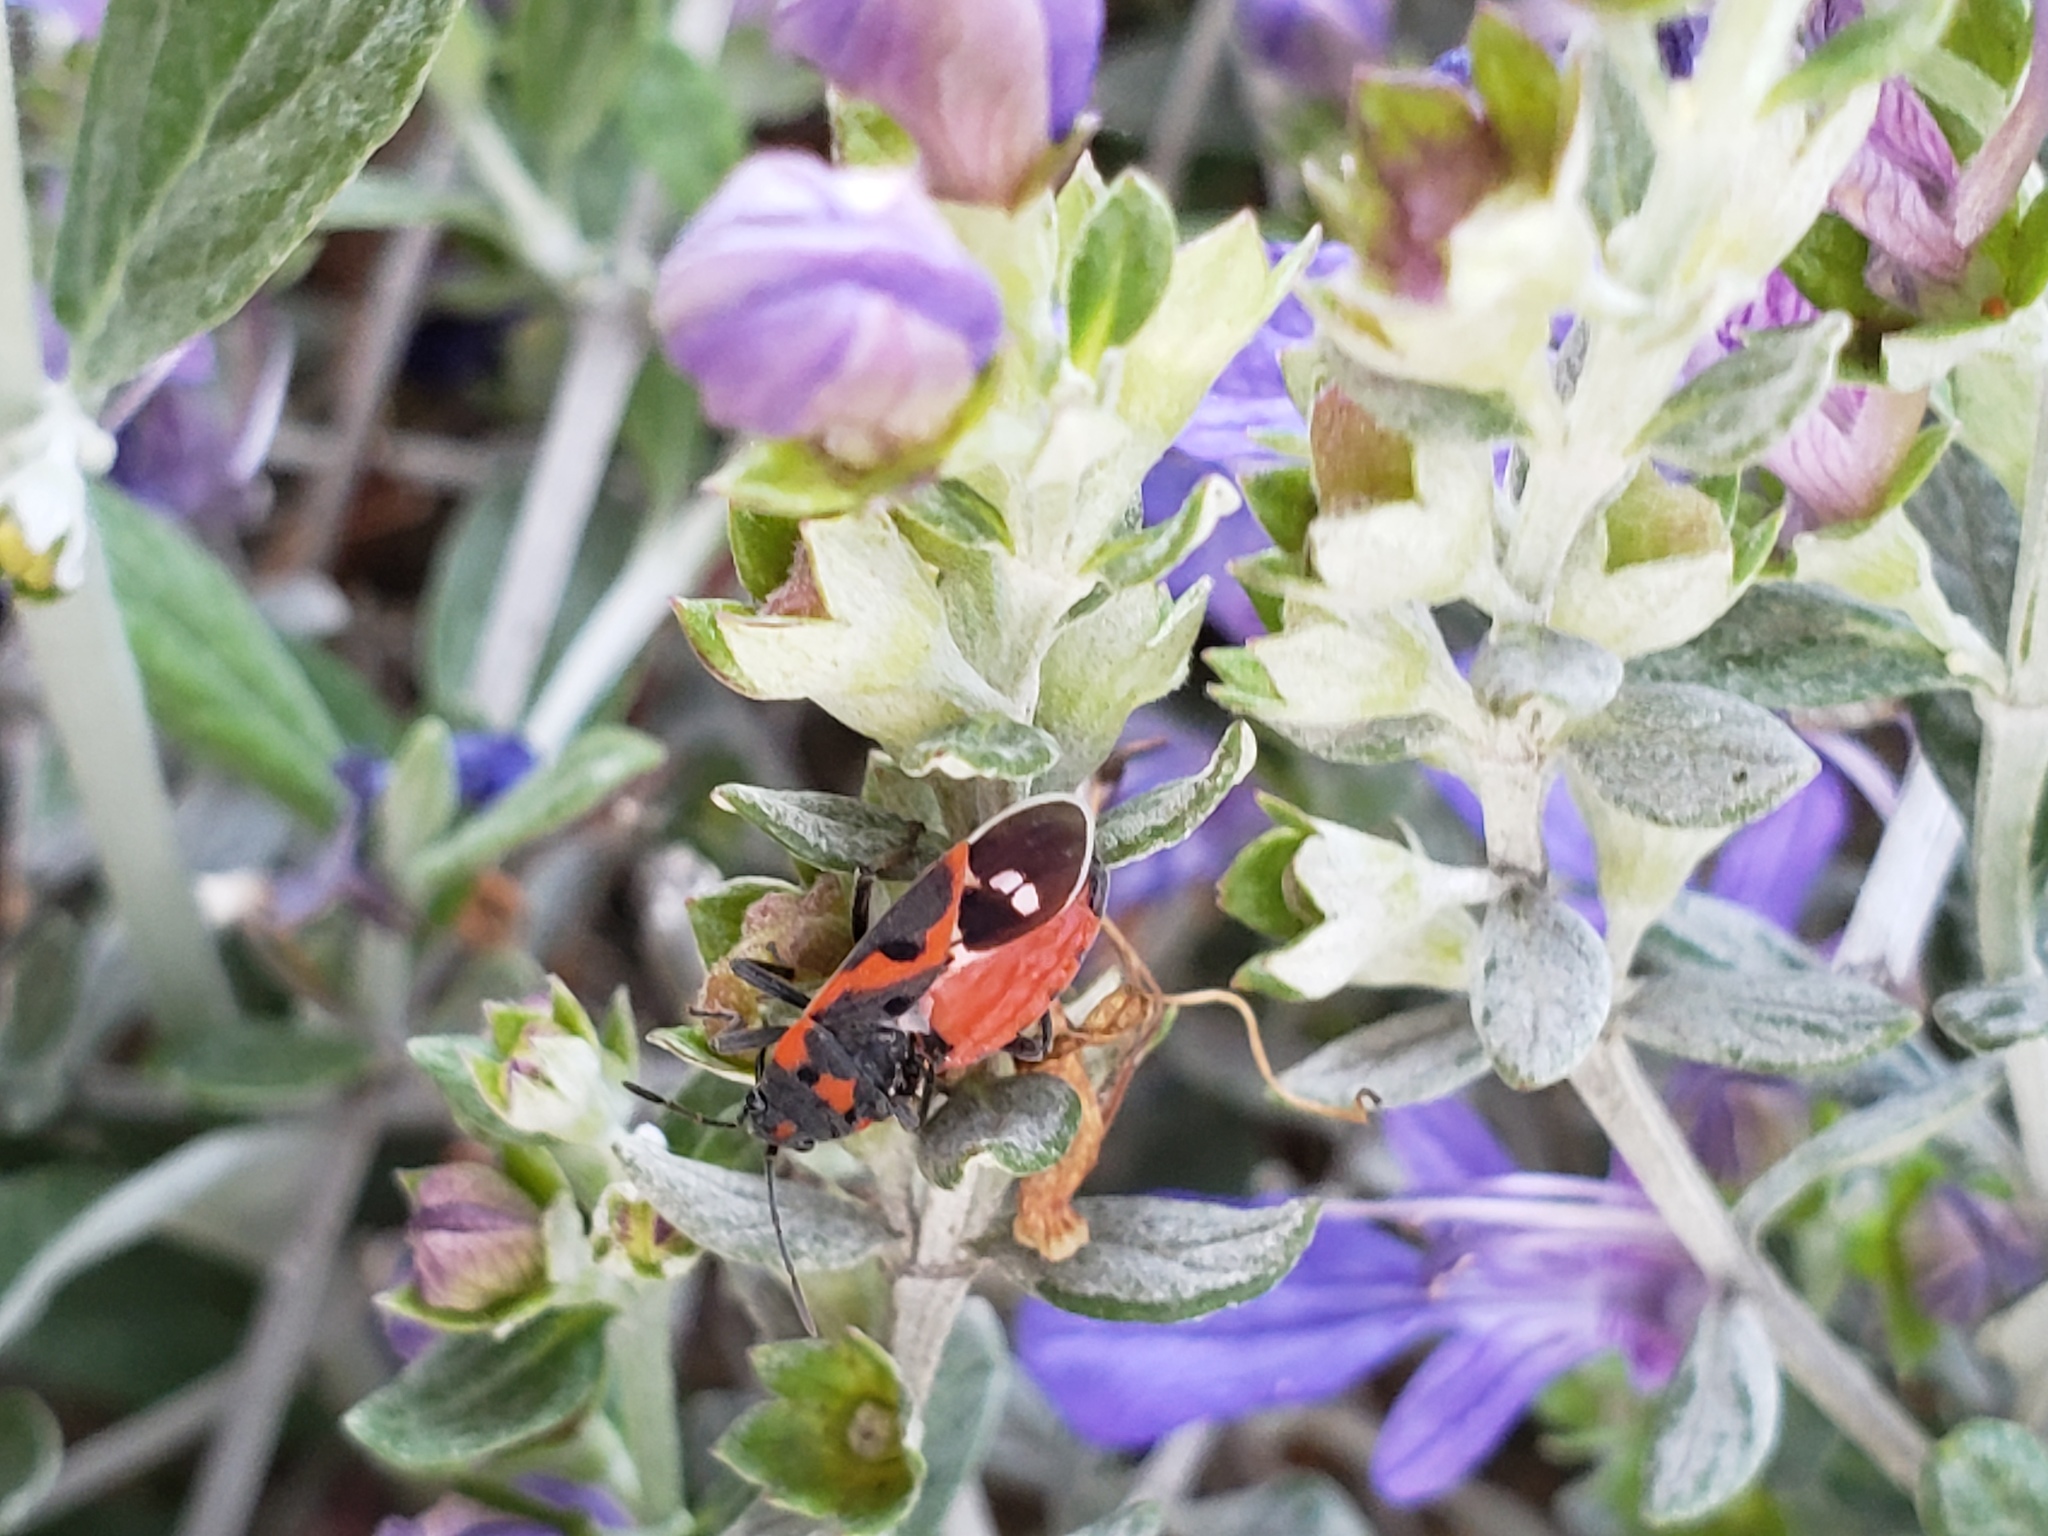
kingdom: Animalia
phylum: Arthropoda
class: Insecta
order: Hemiptera
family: Lygaeidae
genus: Lygaeus
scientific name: Lygaeus kalmii
